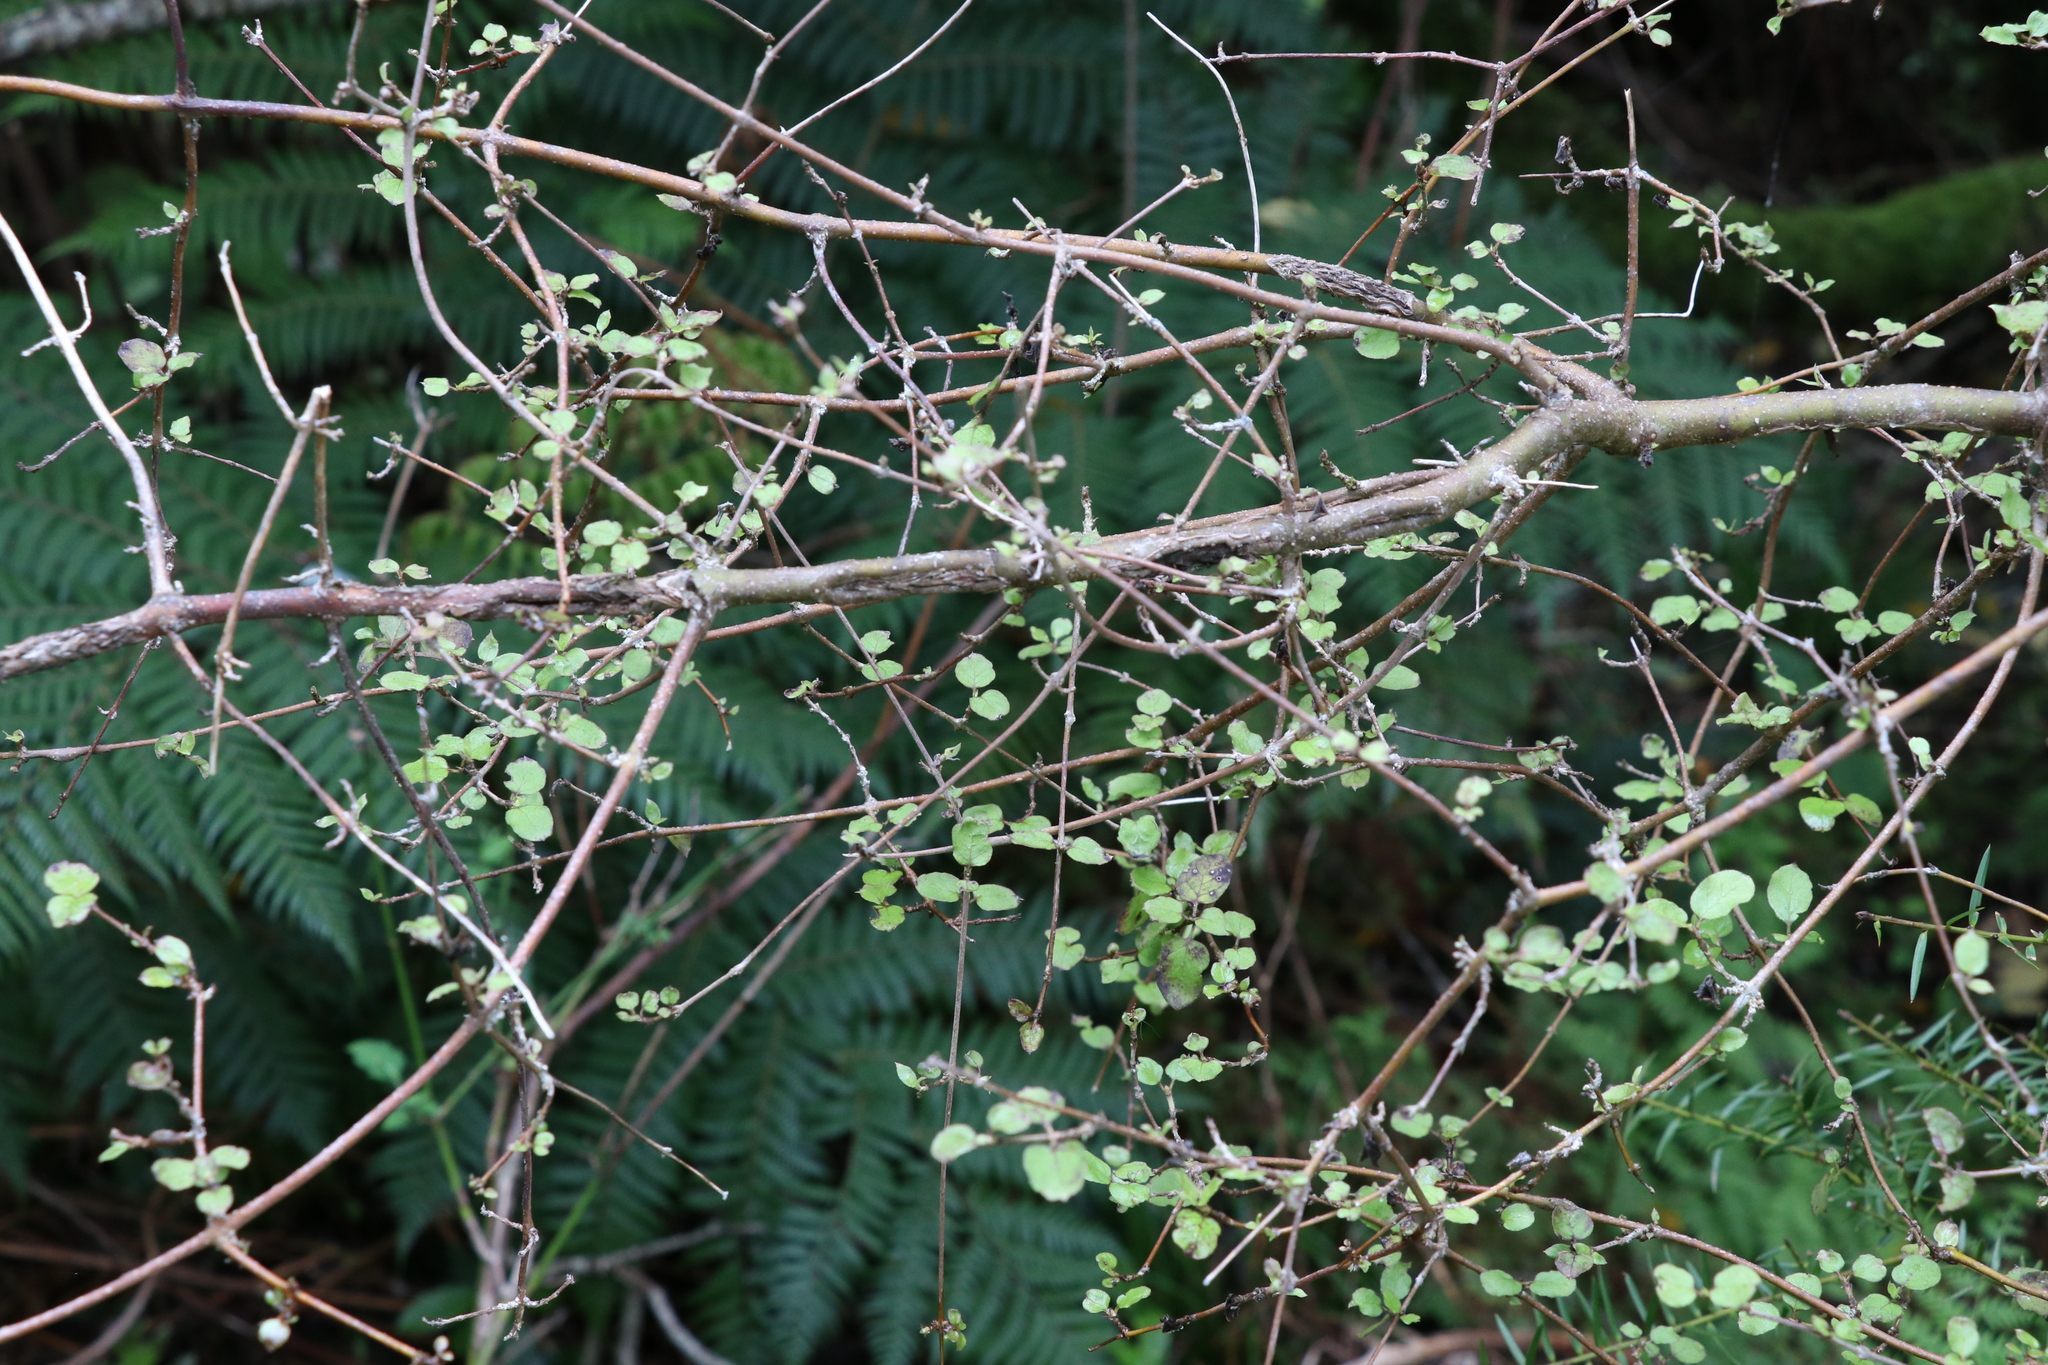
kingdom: Plantae
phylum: Tracheophyta
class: Magnoliopsida
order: Gentianales
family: Rubiaceae
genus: Coprosma
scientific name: Coprosma rotundifolia
